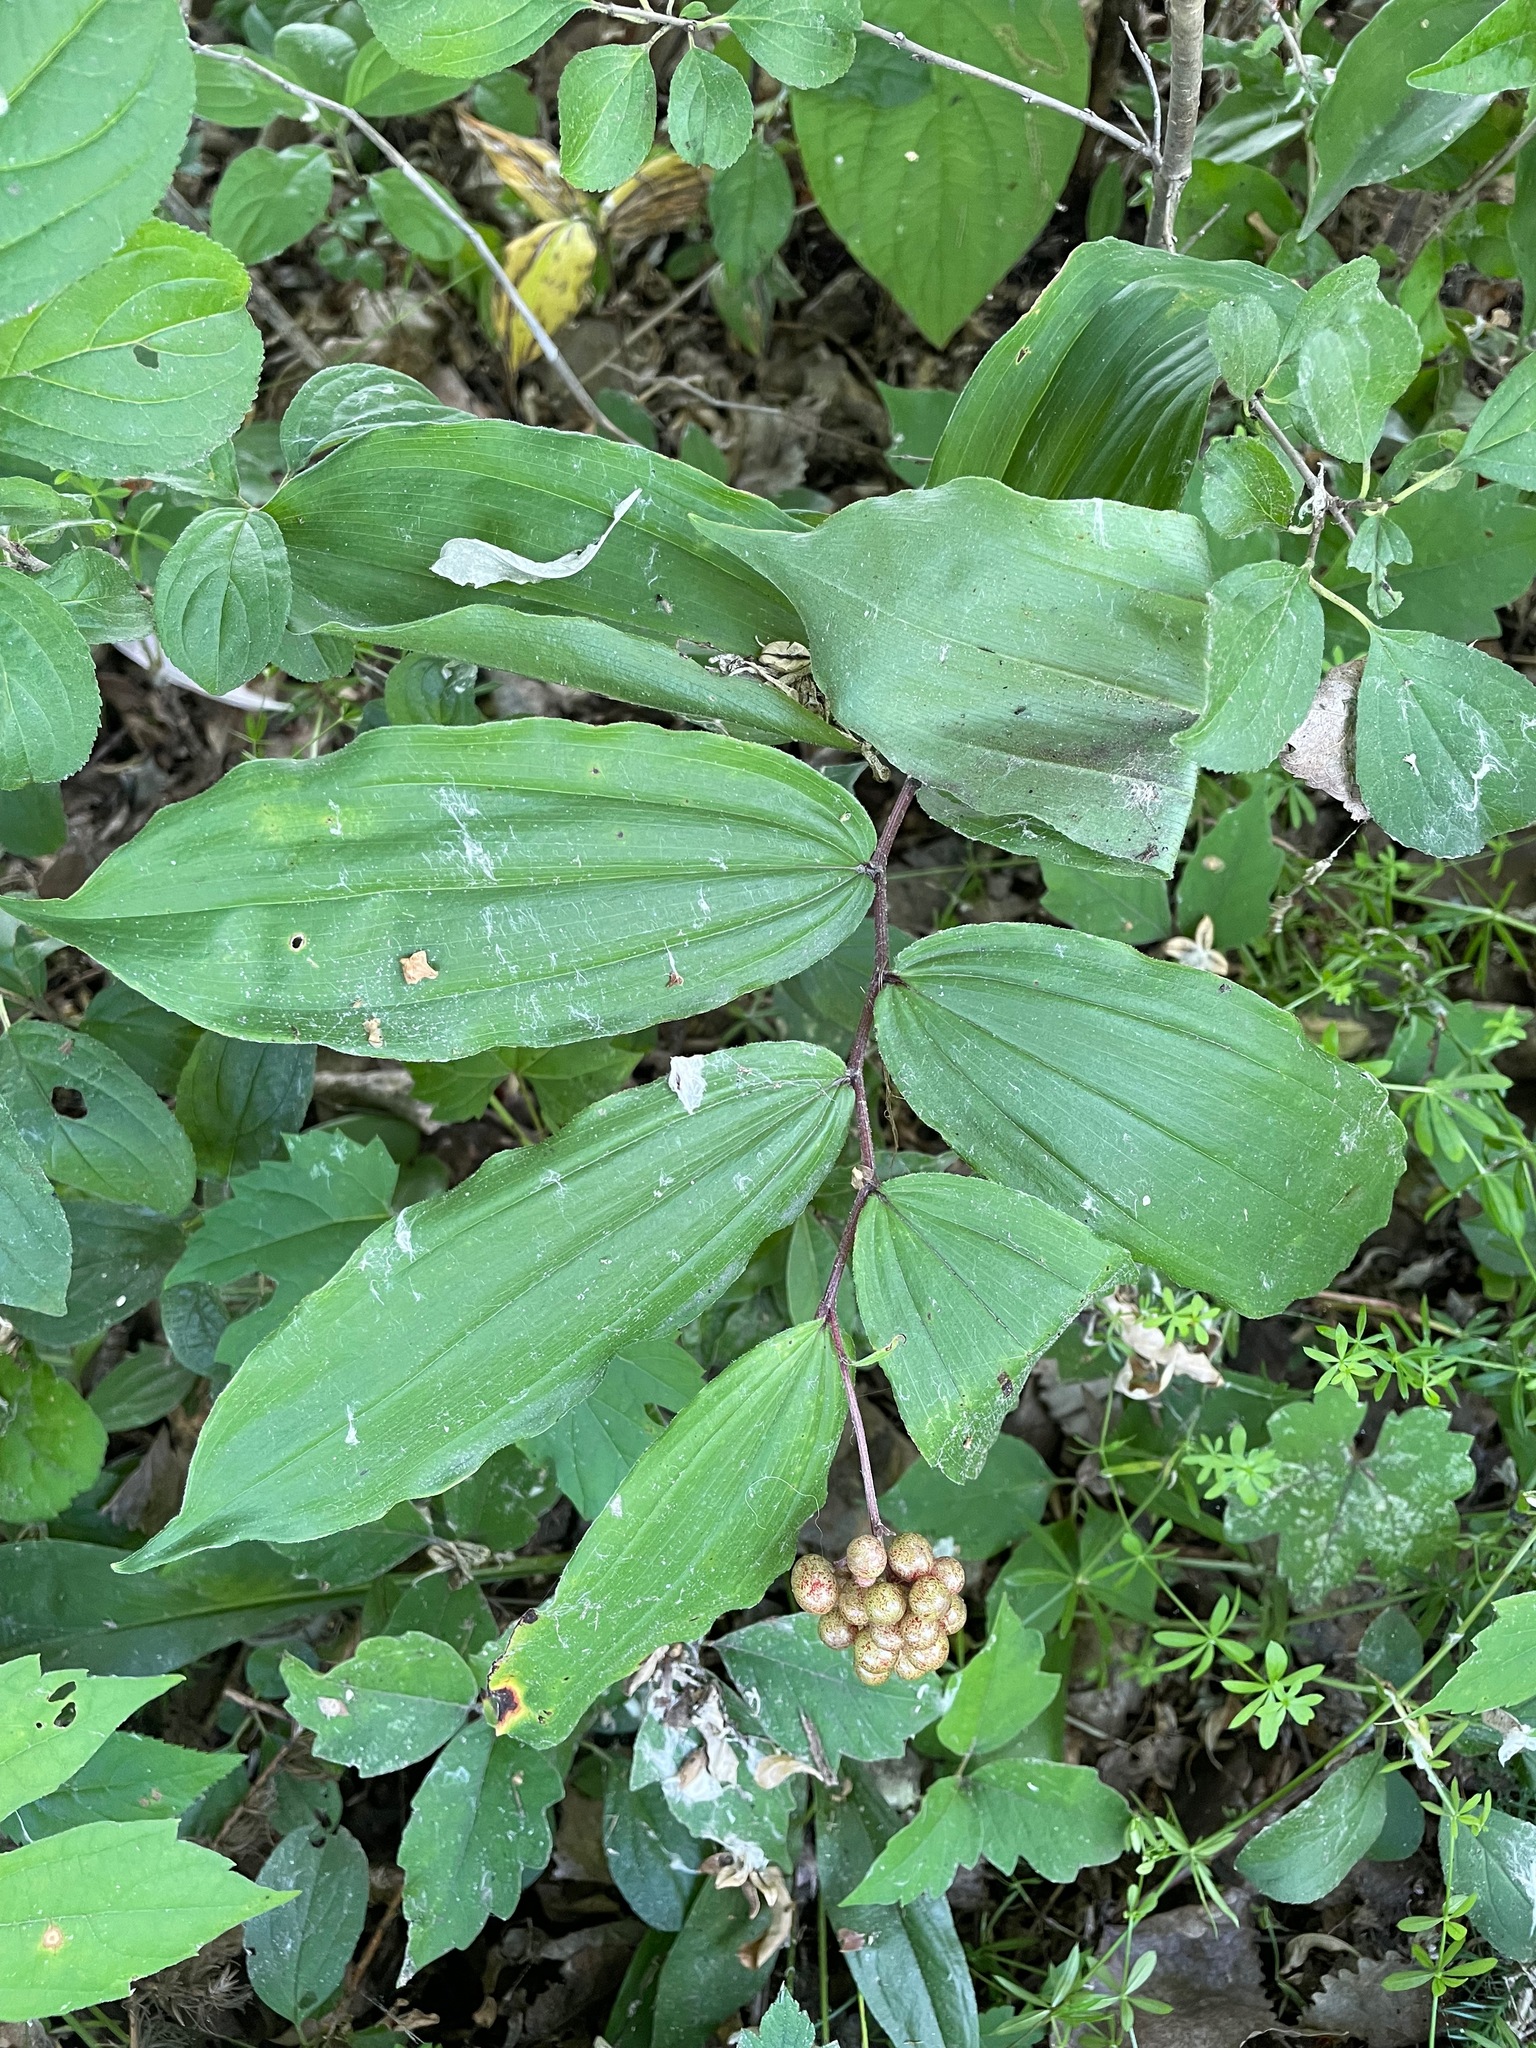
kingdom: Plantae
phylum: Tracheophyta
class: Liliopsida
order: Asparagales
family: Asparagaceae
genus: Maianthemum
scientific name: Maianthemum racemosum
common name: False spikenard
